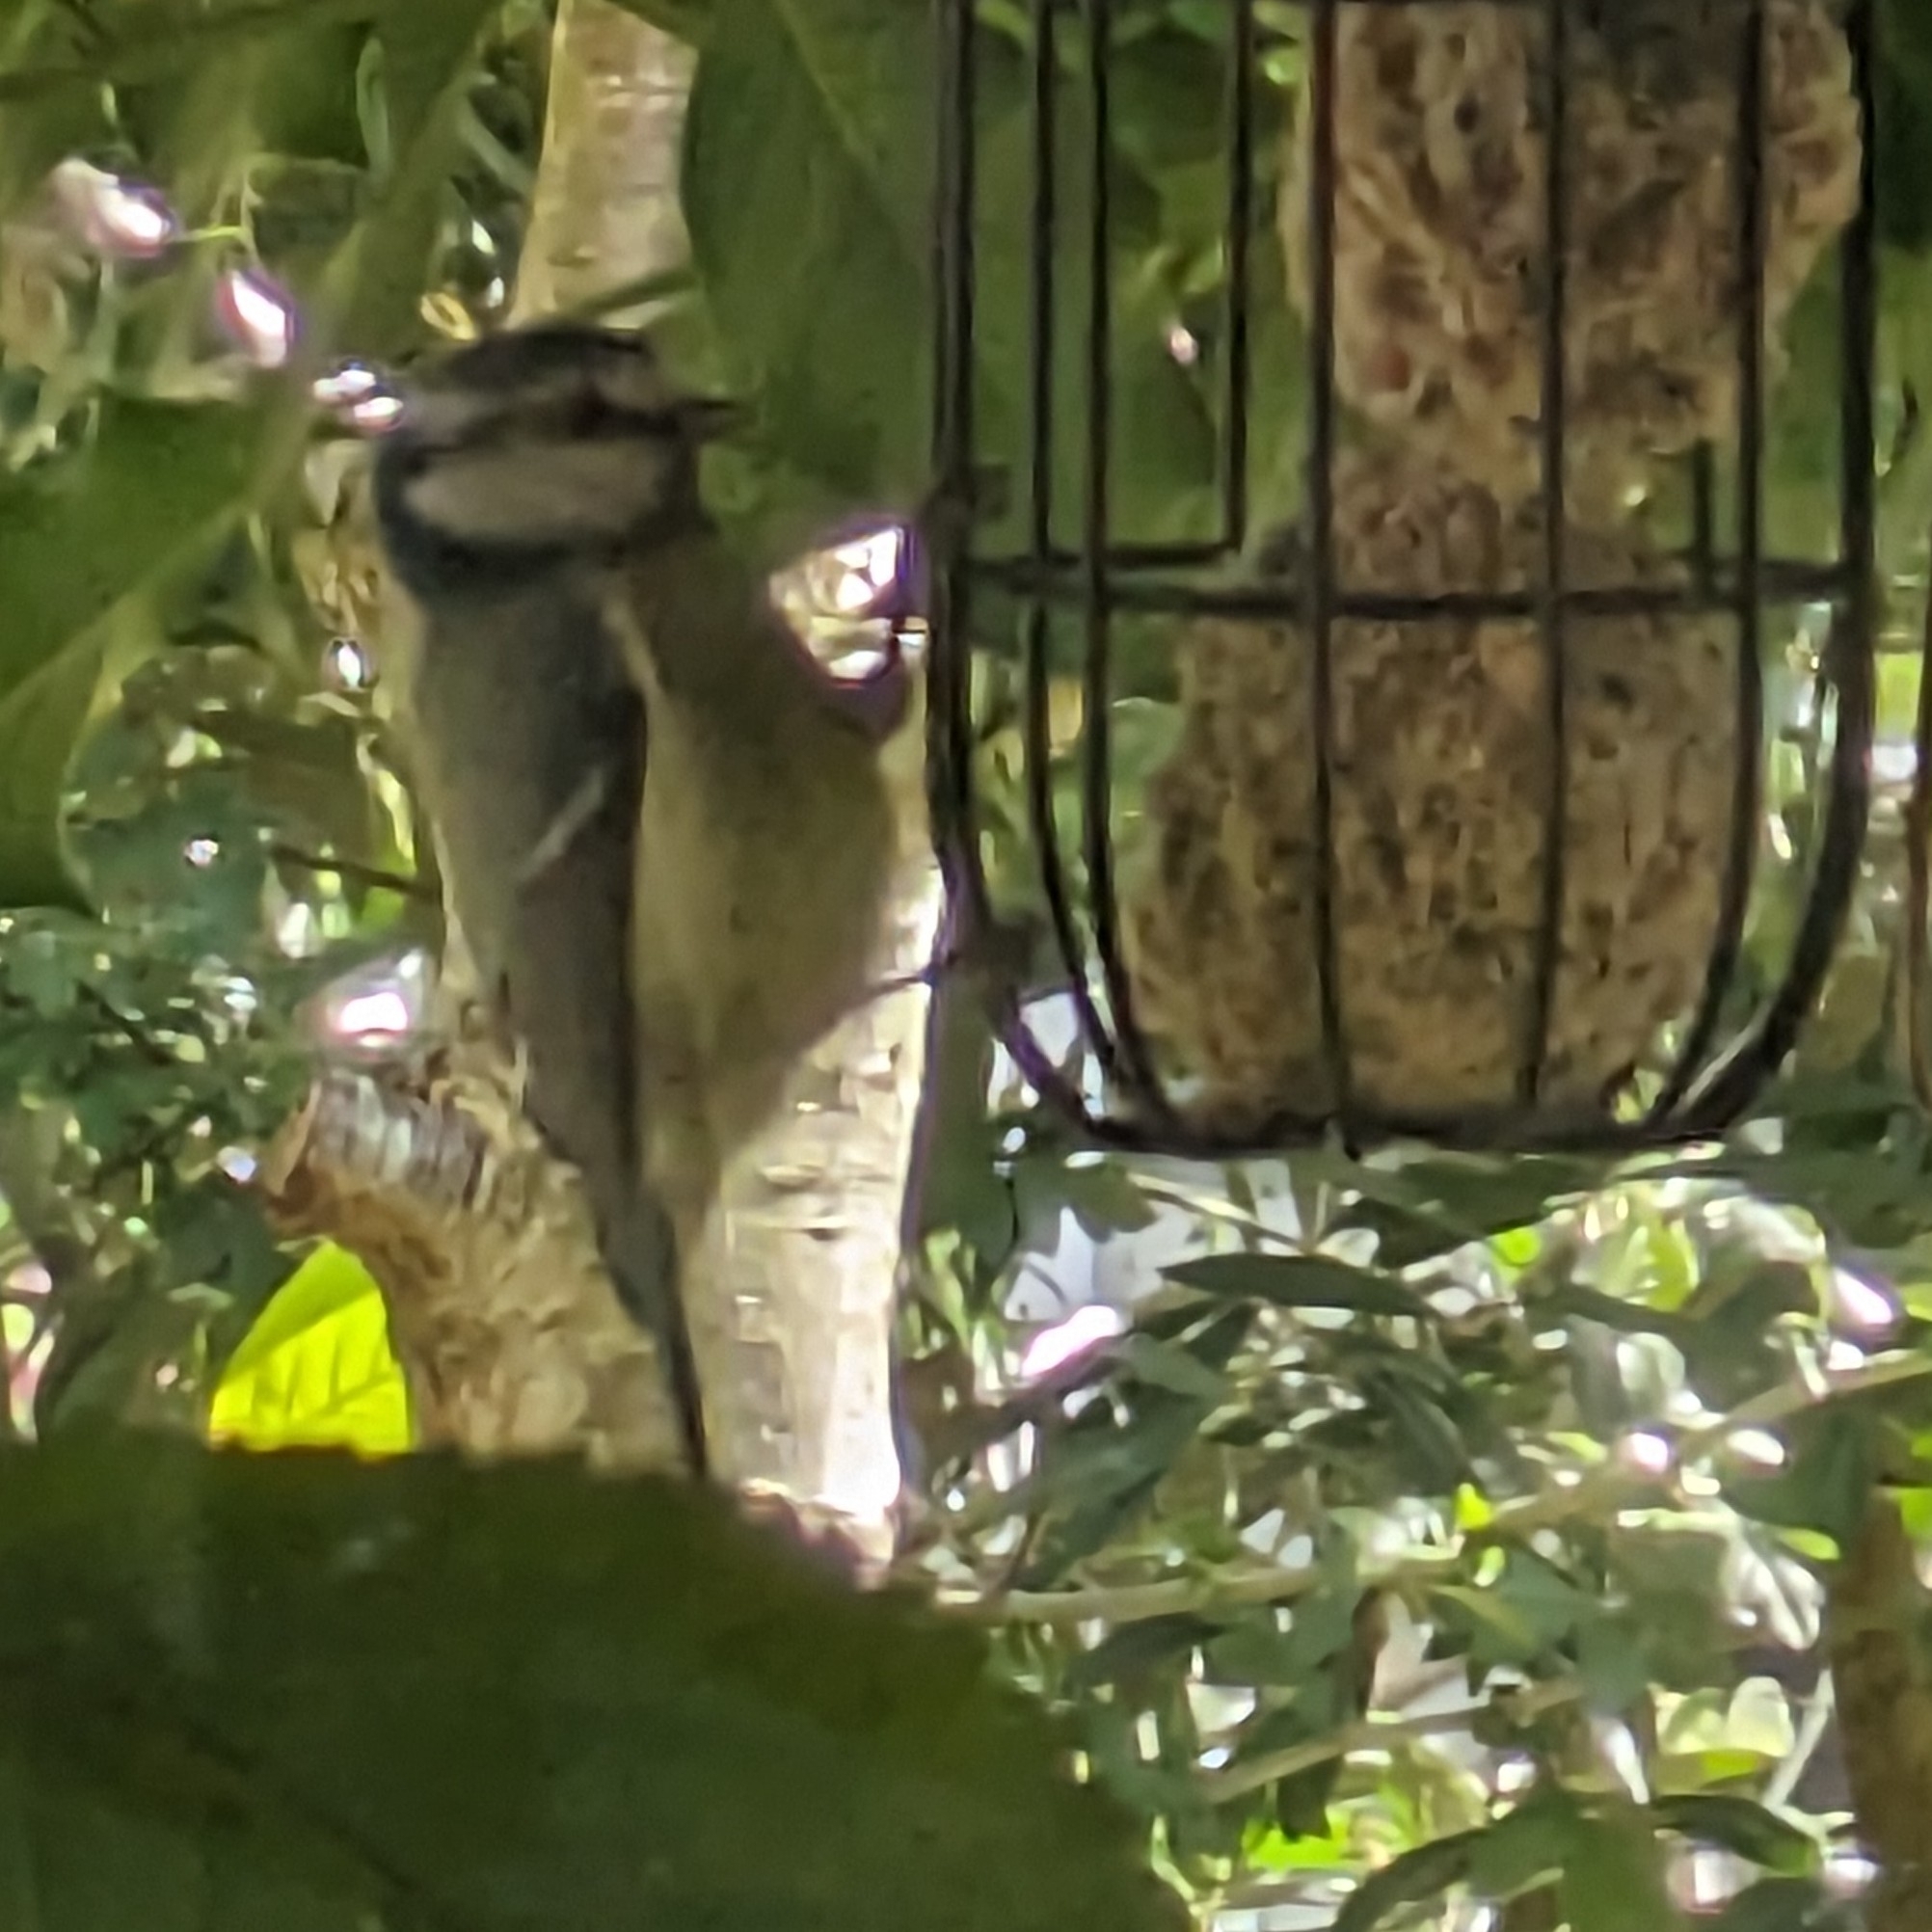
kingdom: Animalia
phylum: Chordata
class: Aves
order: Passeriformes
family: Paridae
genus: Cyanistes
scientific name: Cyanistes caeruleus
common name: Eurasian blue tit
